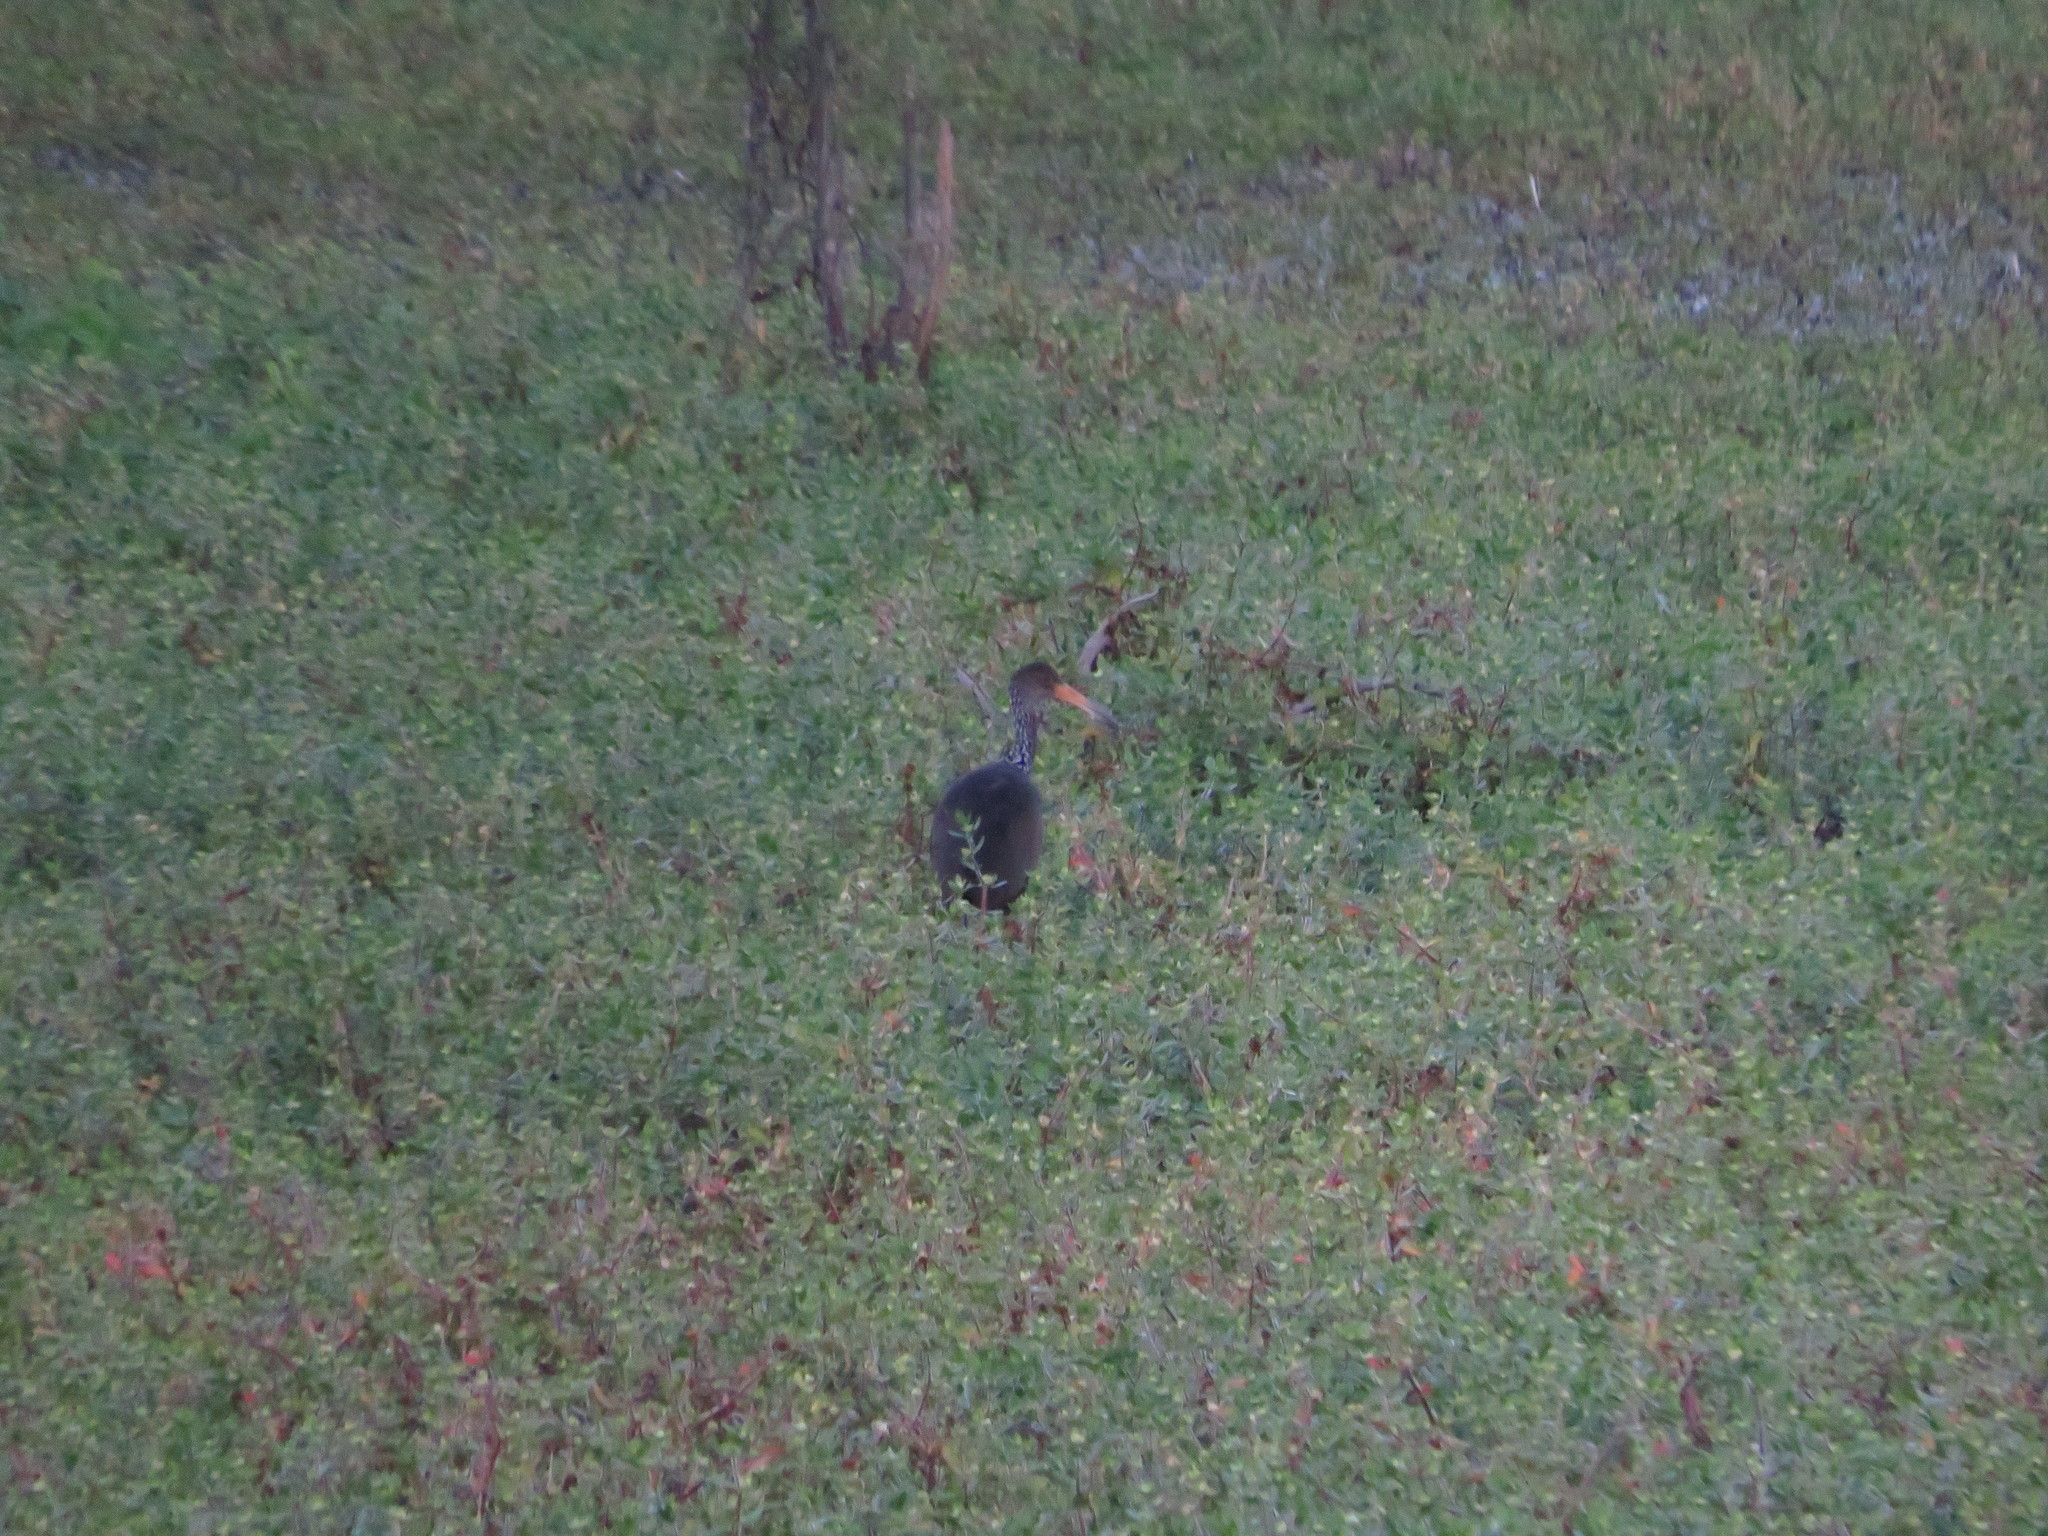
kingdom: Animalia
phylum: Chordata
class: Aves
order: Gruiformes
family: Aramidae
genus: Aramus
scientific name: Aramus guarauna
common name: Limpkin
